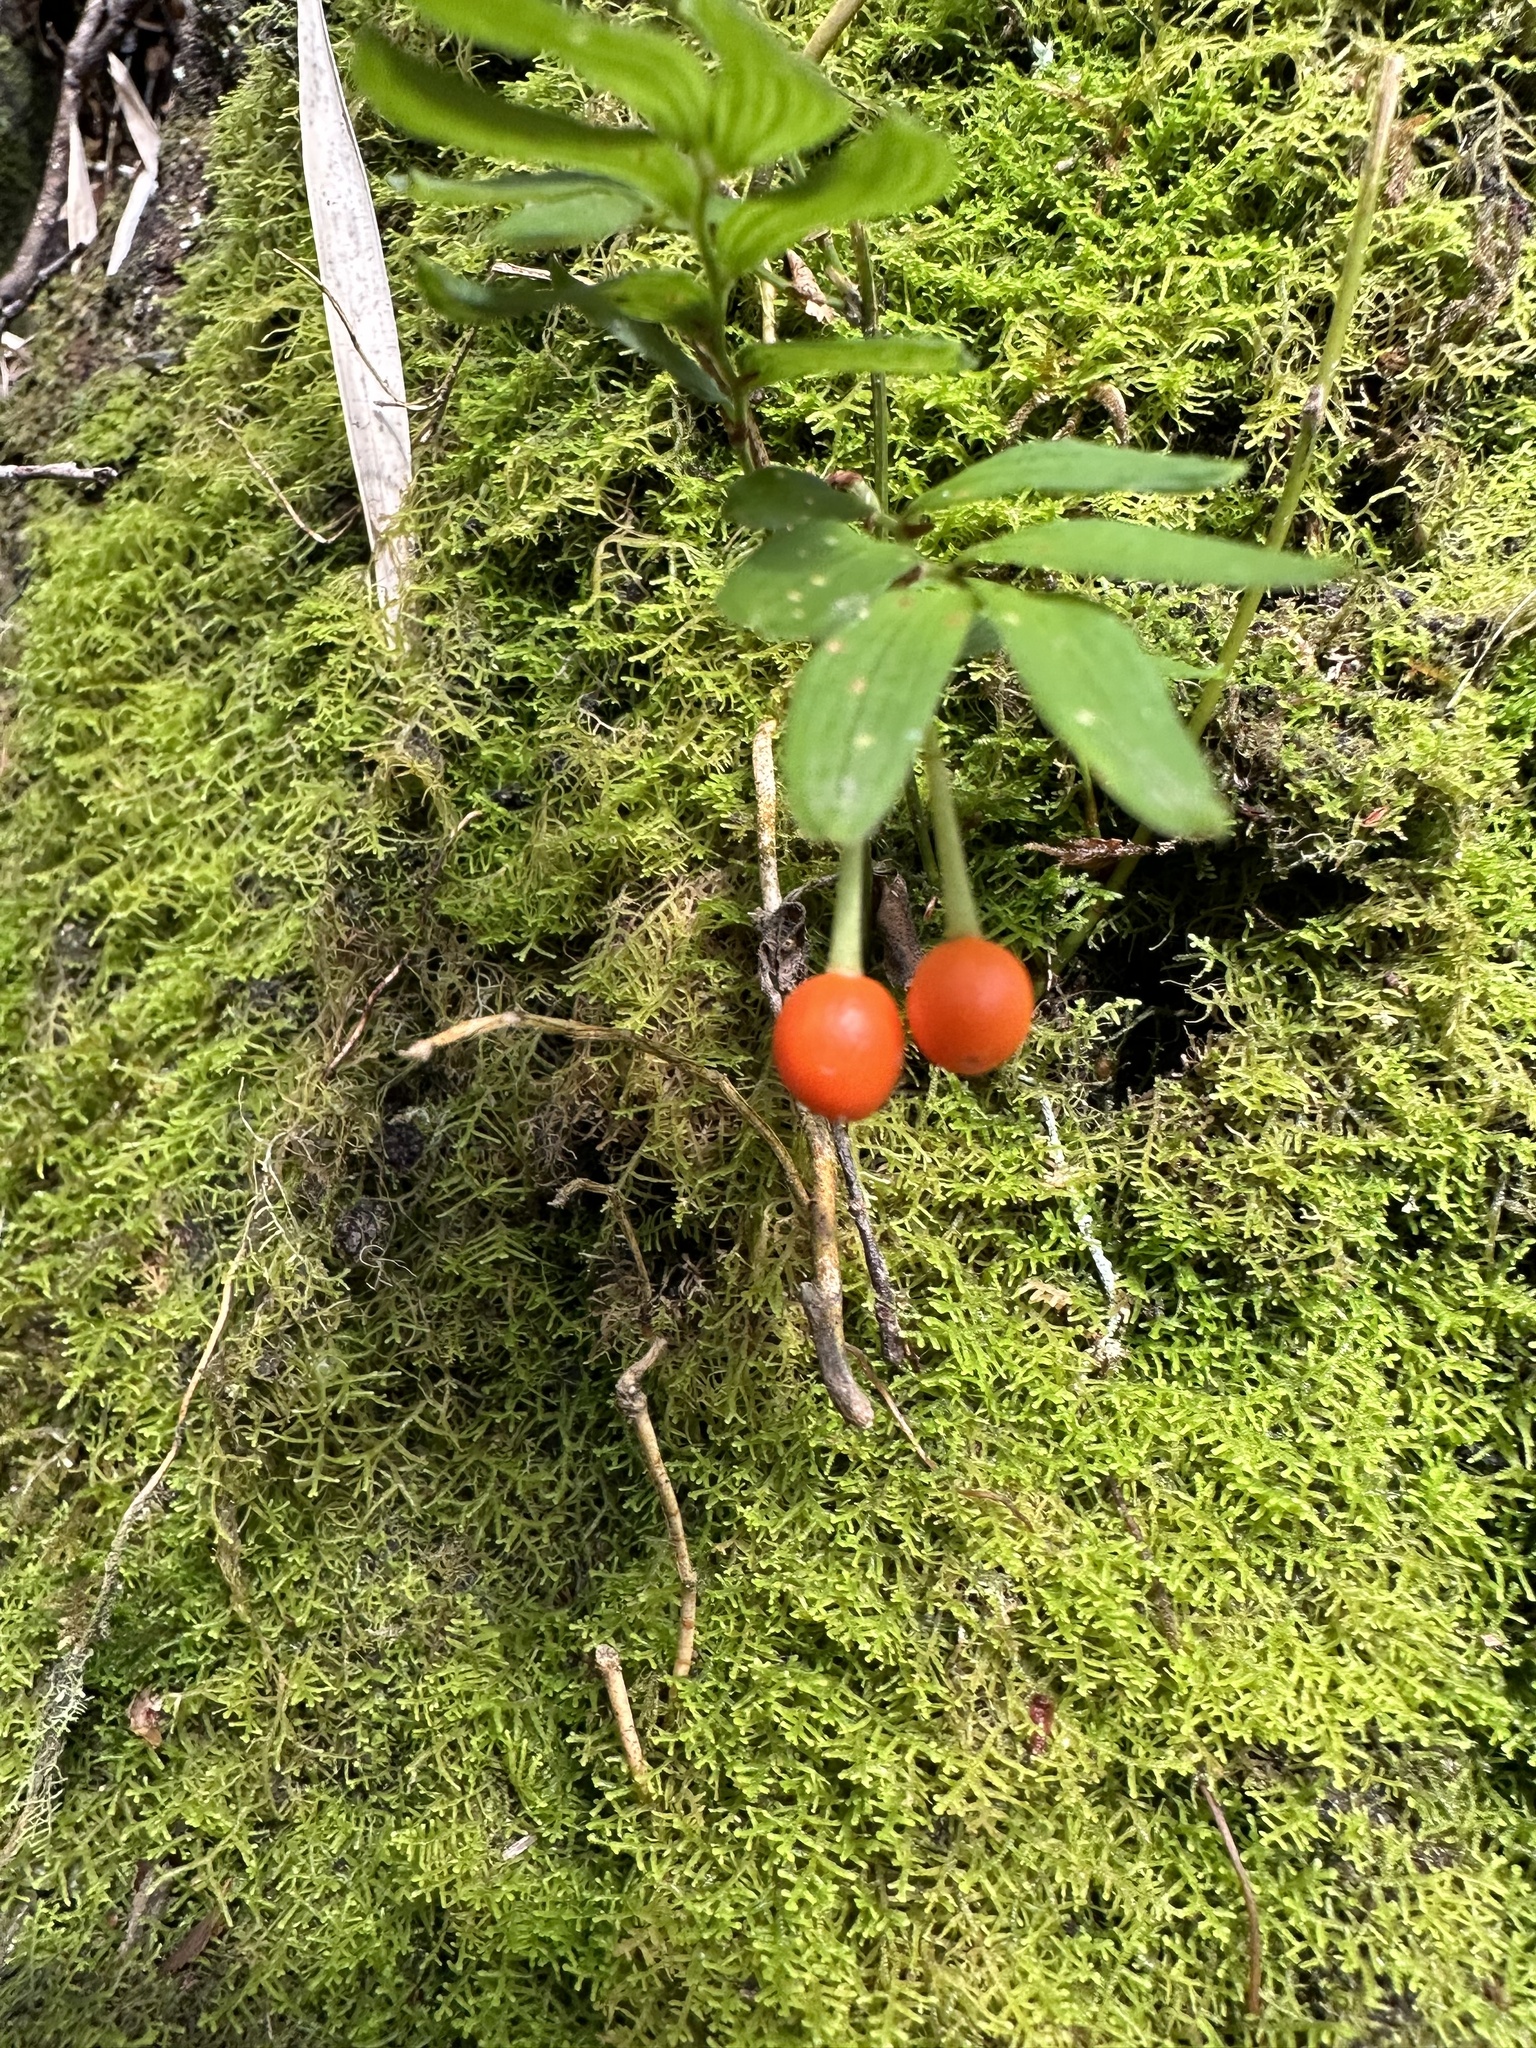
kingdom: Plantae
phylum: Tracheophyta
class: Liliopsida
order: Liliales
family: Alstroemeriaceae
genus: Luzuriaga
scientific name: Luzuriaga radicans
